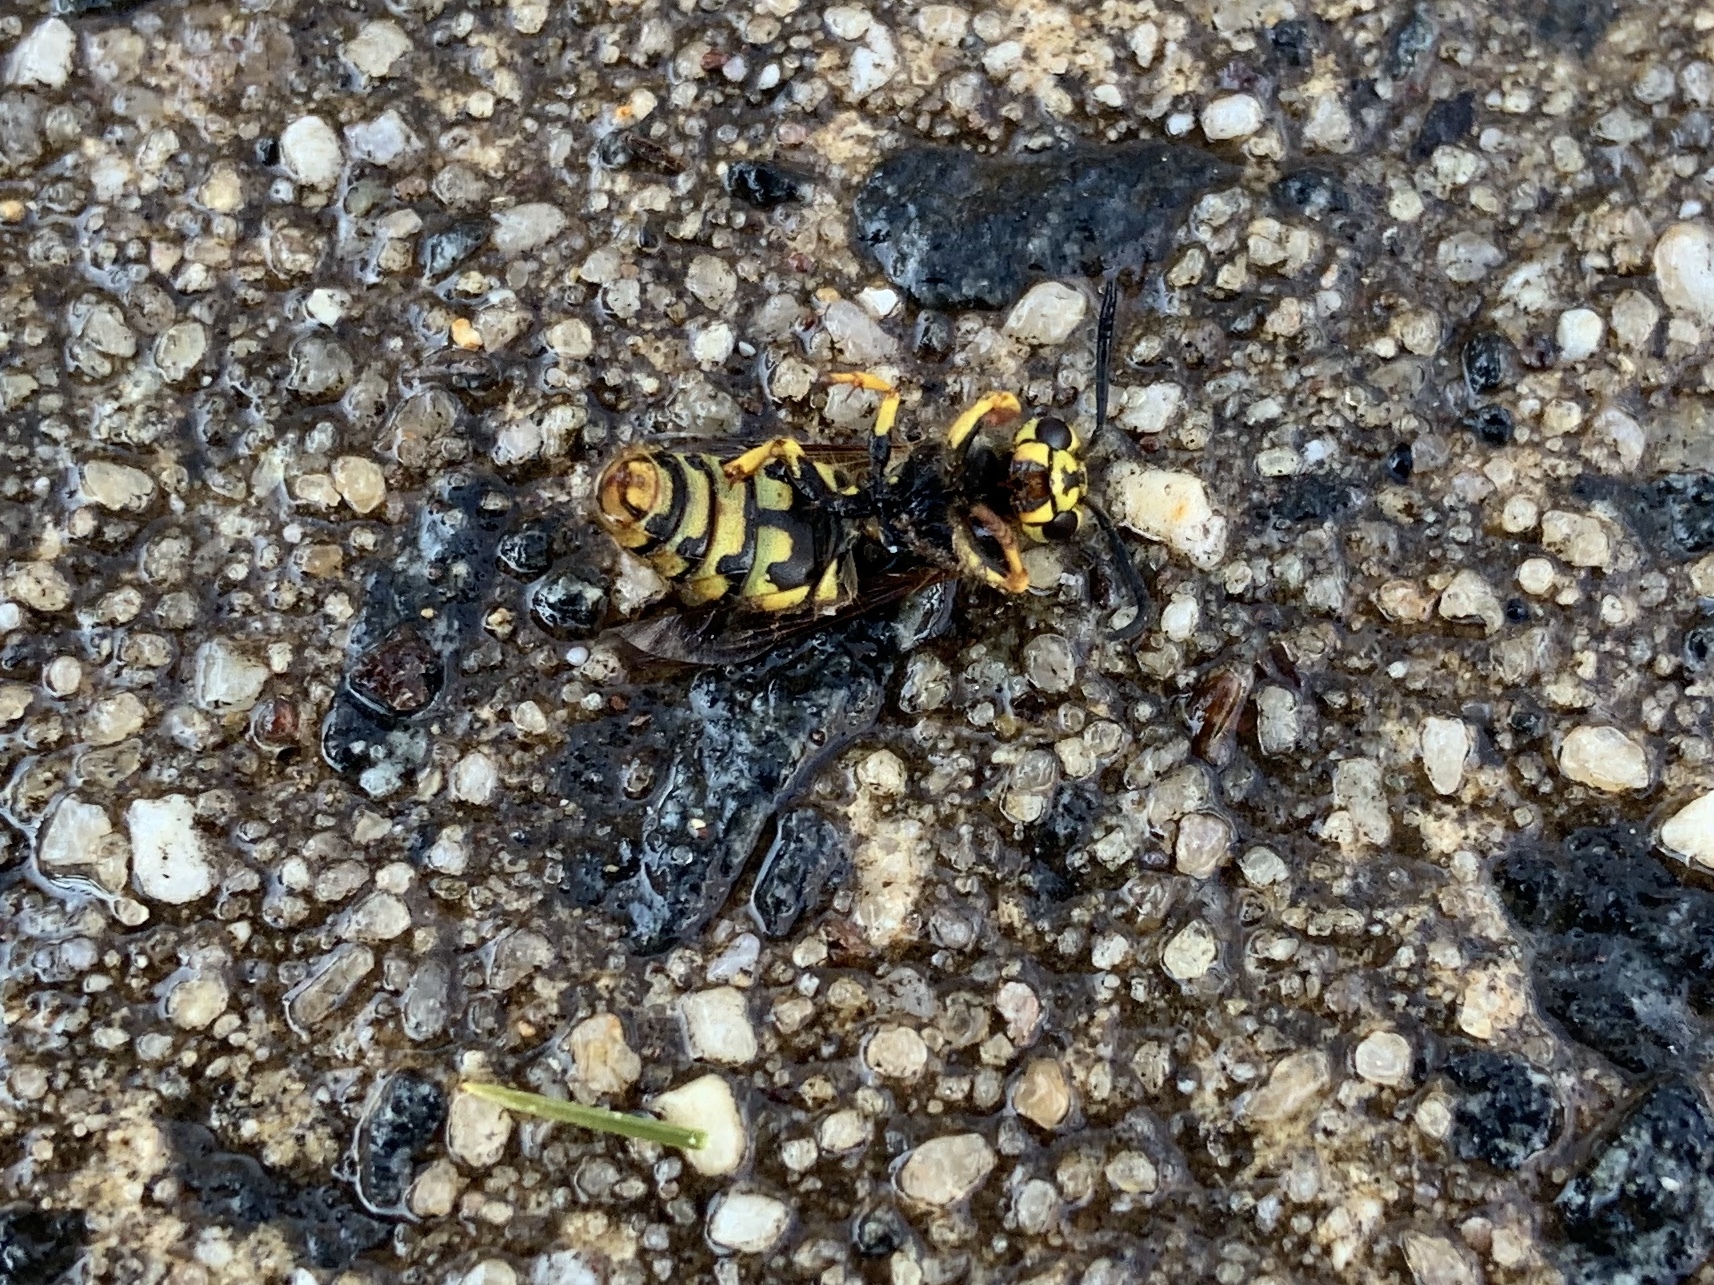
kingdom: Animalia
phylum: Arthropoda
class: Insecta
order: Hymenoptera
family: Vespidae
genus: Vespula
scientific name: Vespula
